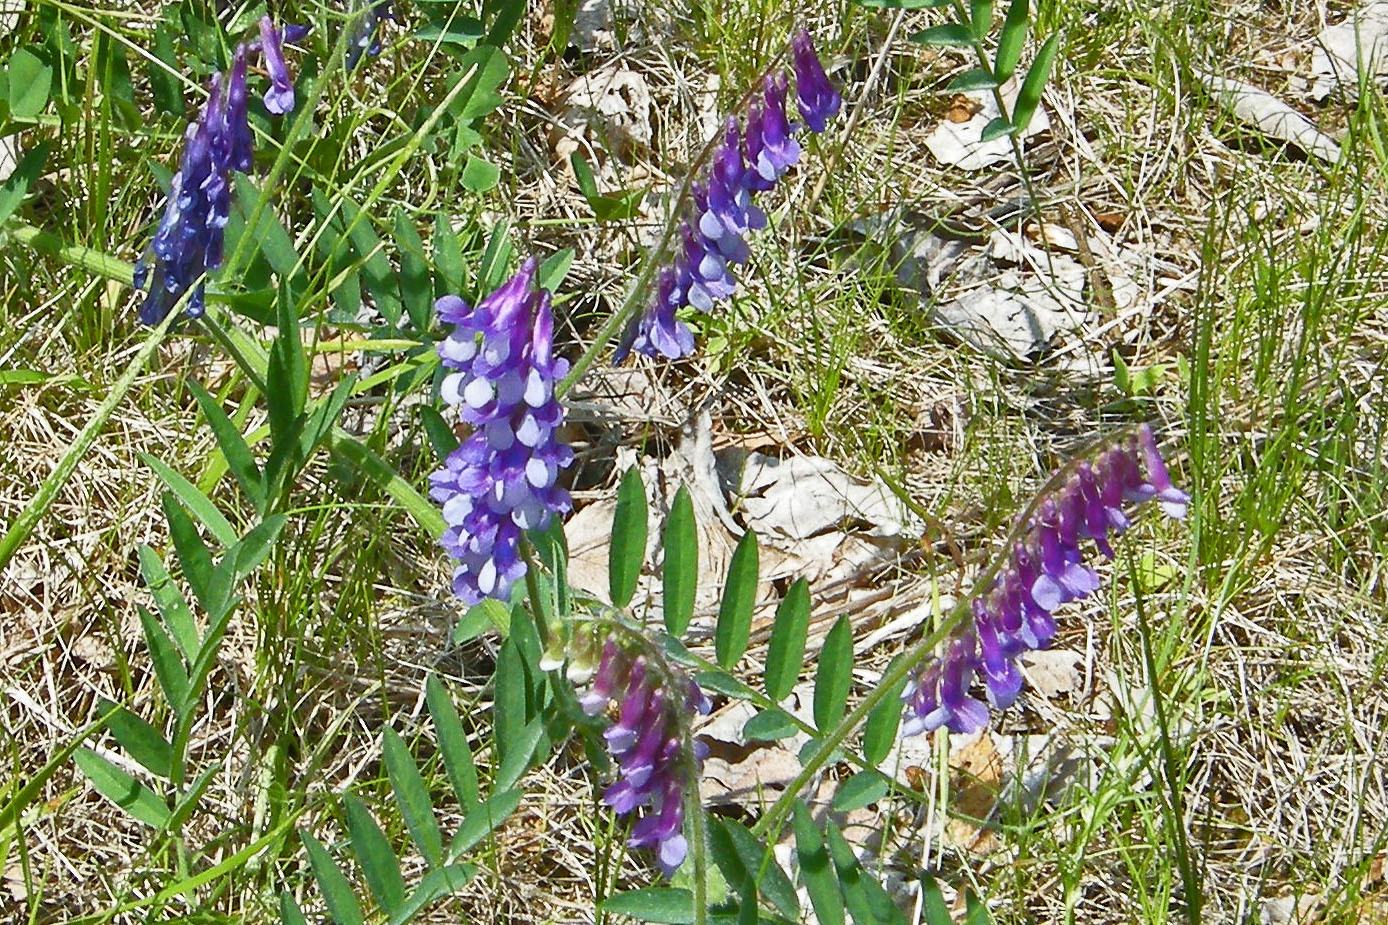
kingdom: Plantae
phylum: Tracheophyta
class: Magnoliopsida
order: Fabales
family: Fabaceae
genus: Vicia
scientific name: Vicia villosa
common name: Fodder vetch
